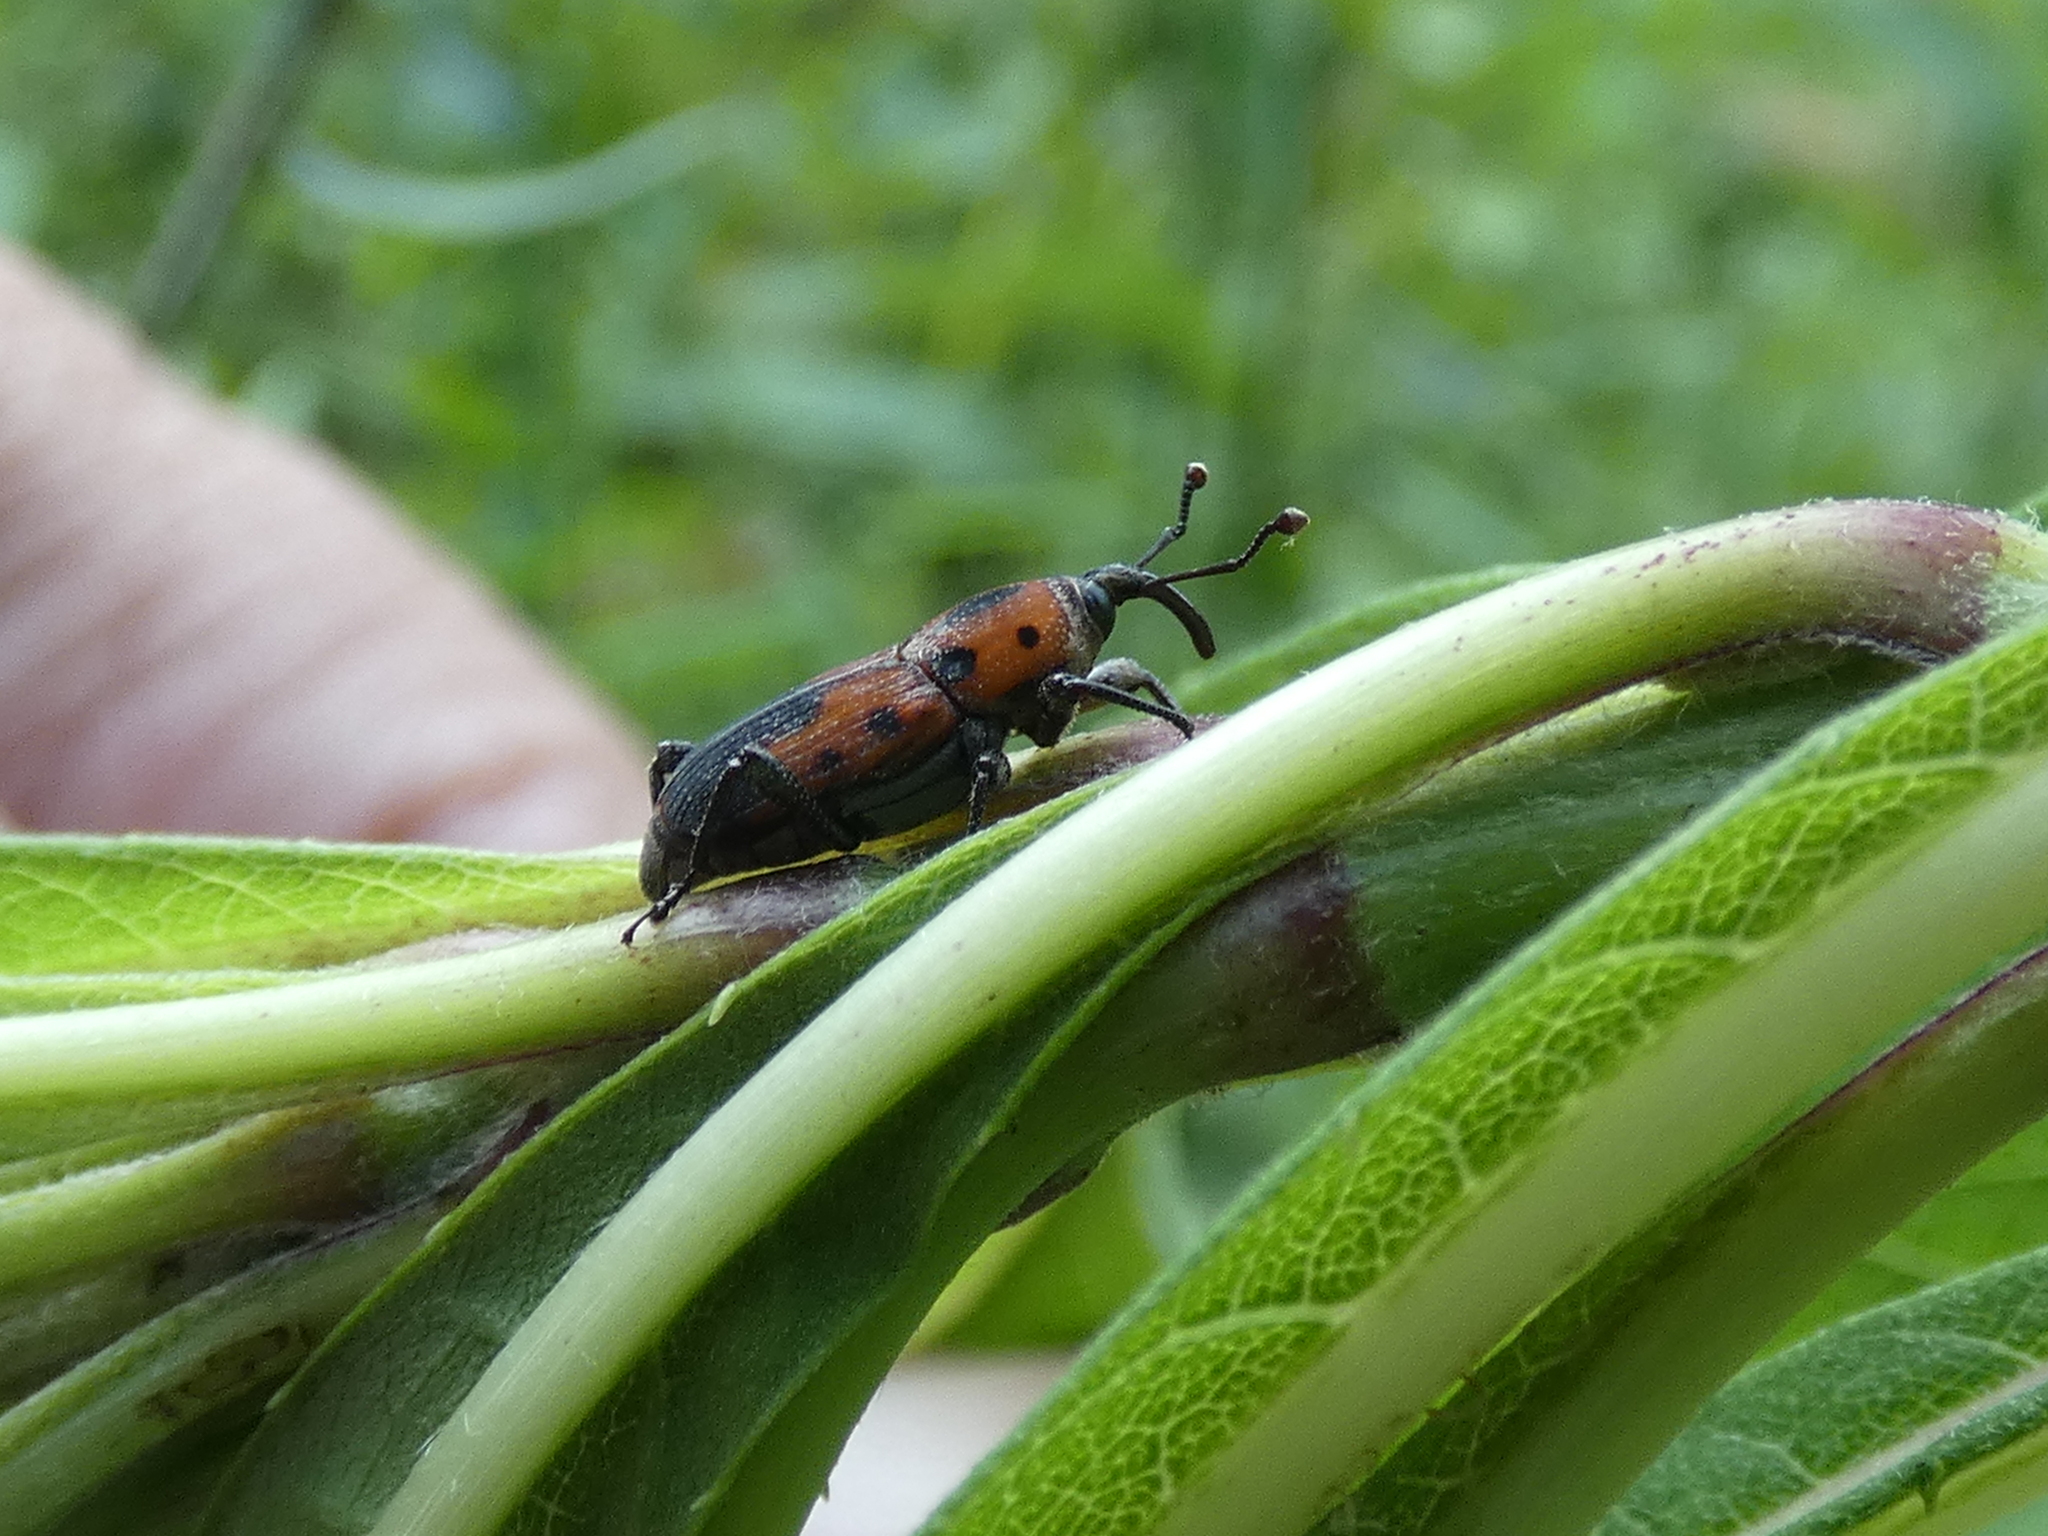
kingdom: Animalia
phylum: Arthropoda
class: Insecta
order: Coleoptera
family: Dryophthoridae
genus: Rhodobaenus
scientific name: Rhodobaenus quinquepunctatus
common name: Cocklebur weevil
